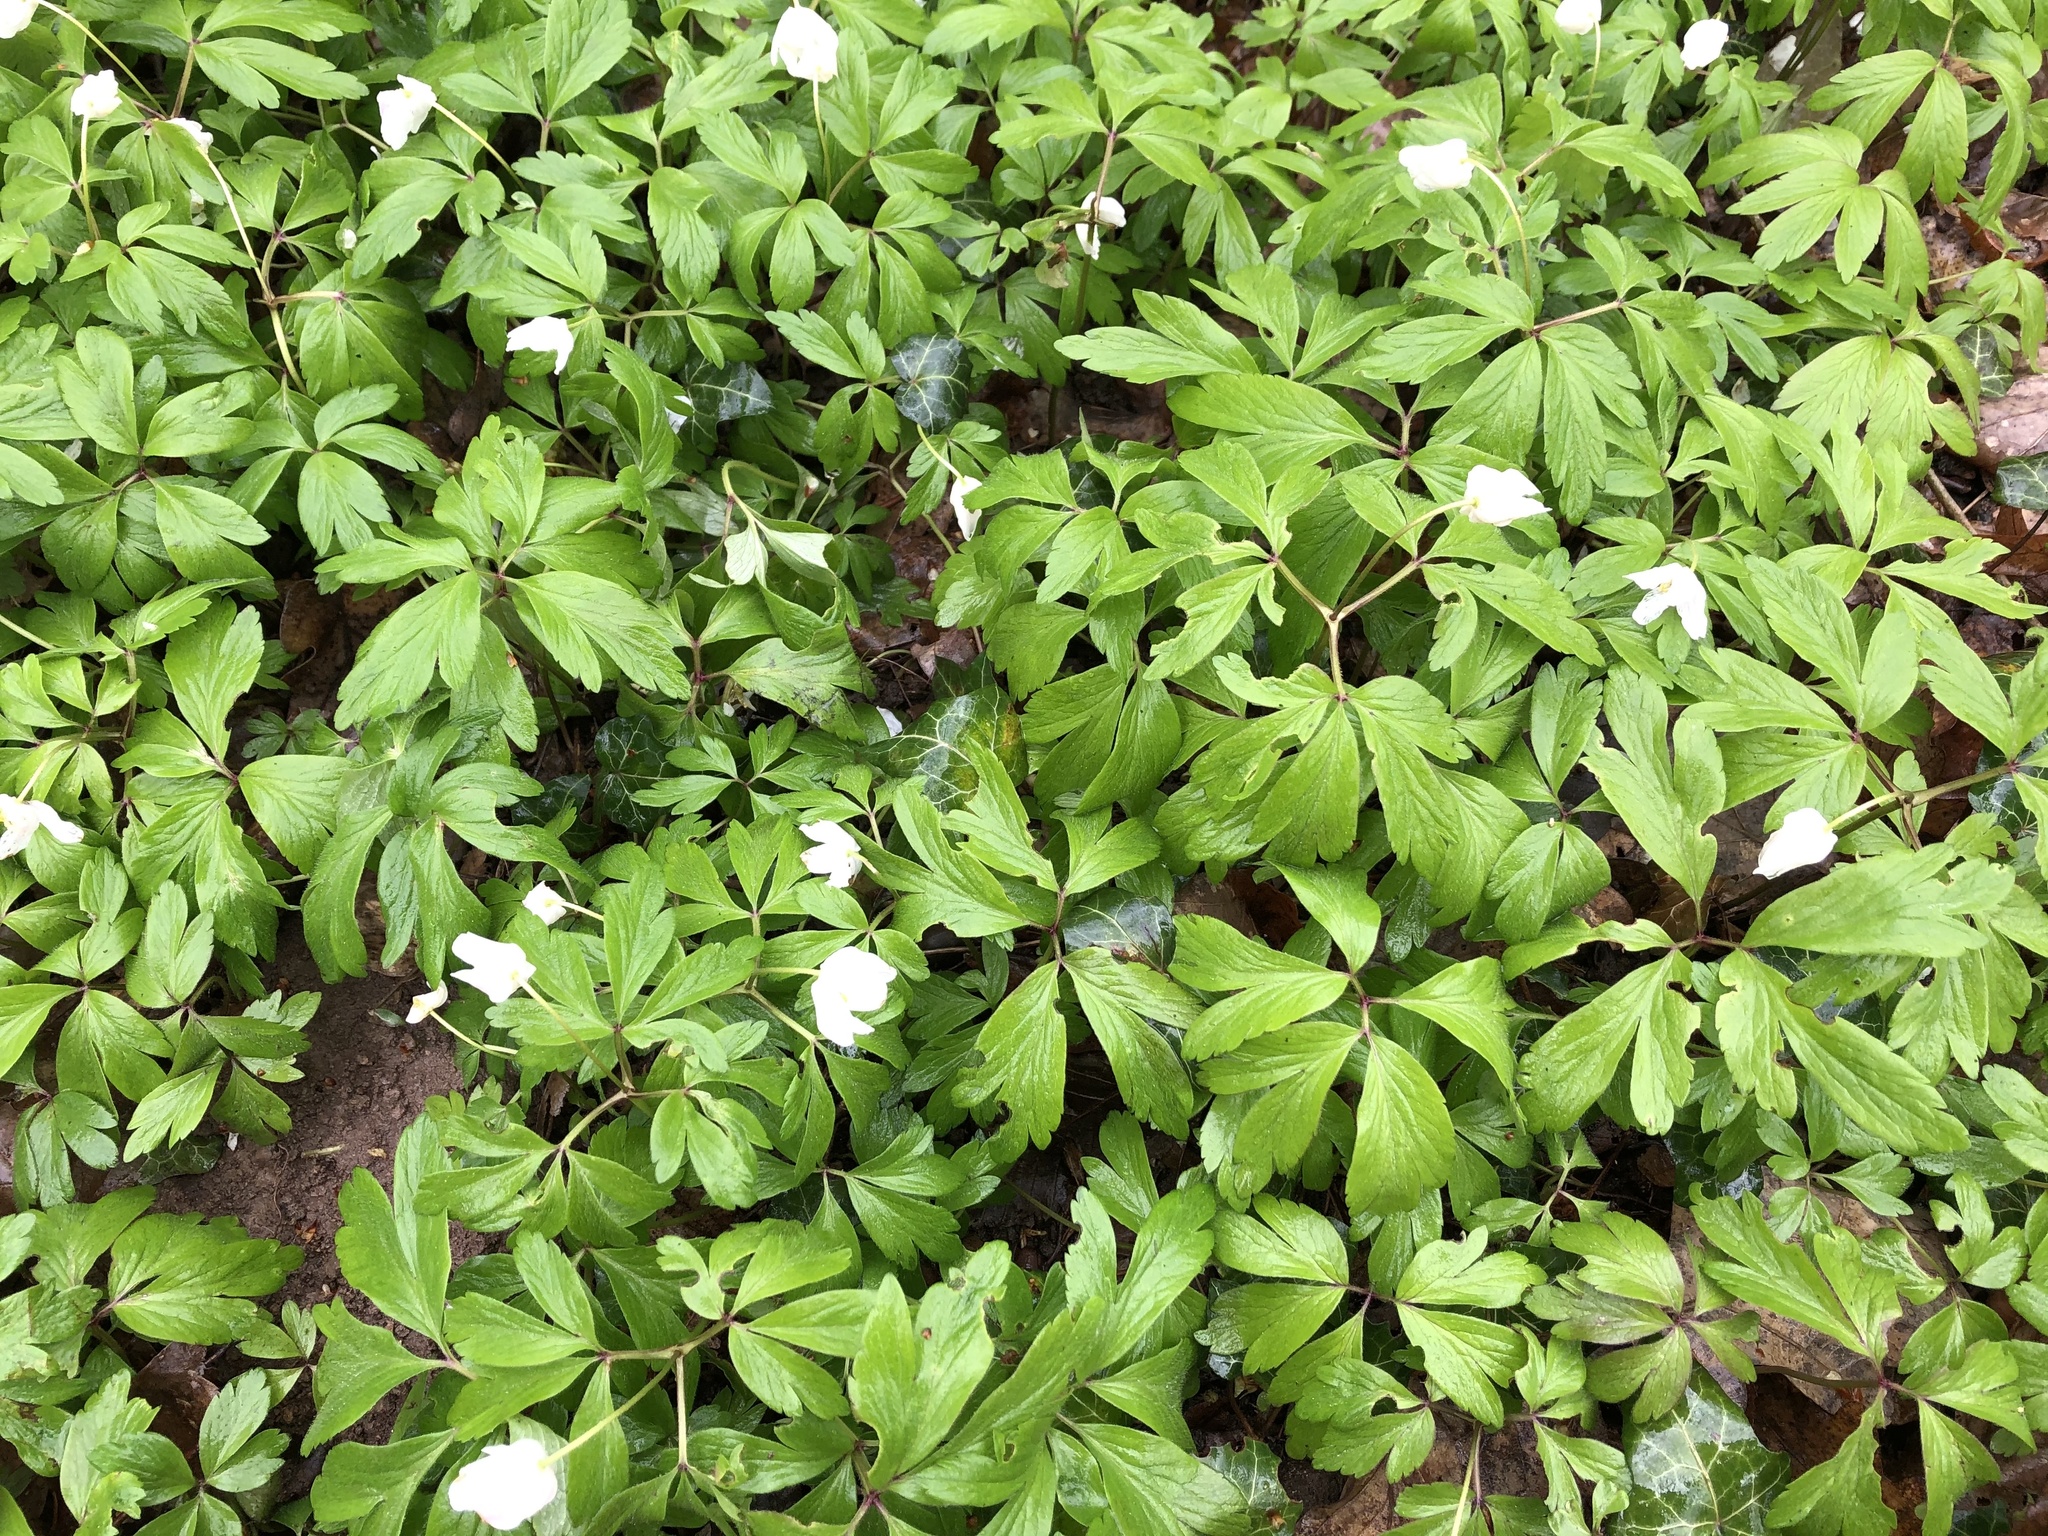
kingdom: Plantae
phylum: Tracheophyta
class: Magnoliopsida
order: Ranunculales
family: Ranunculaceae
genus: Anemone
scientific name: Anemone nemorosa
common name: Wood anemone
